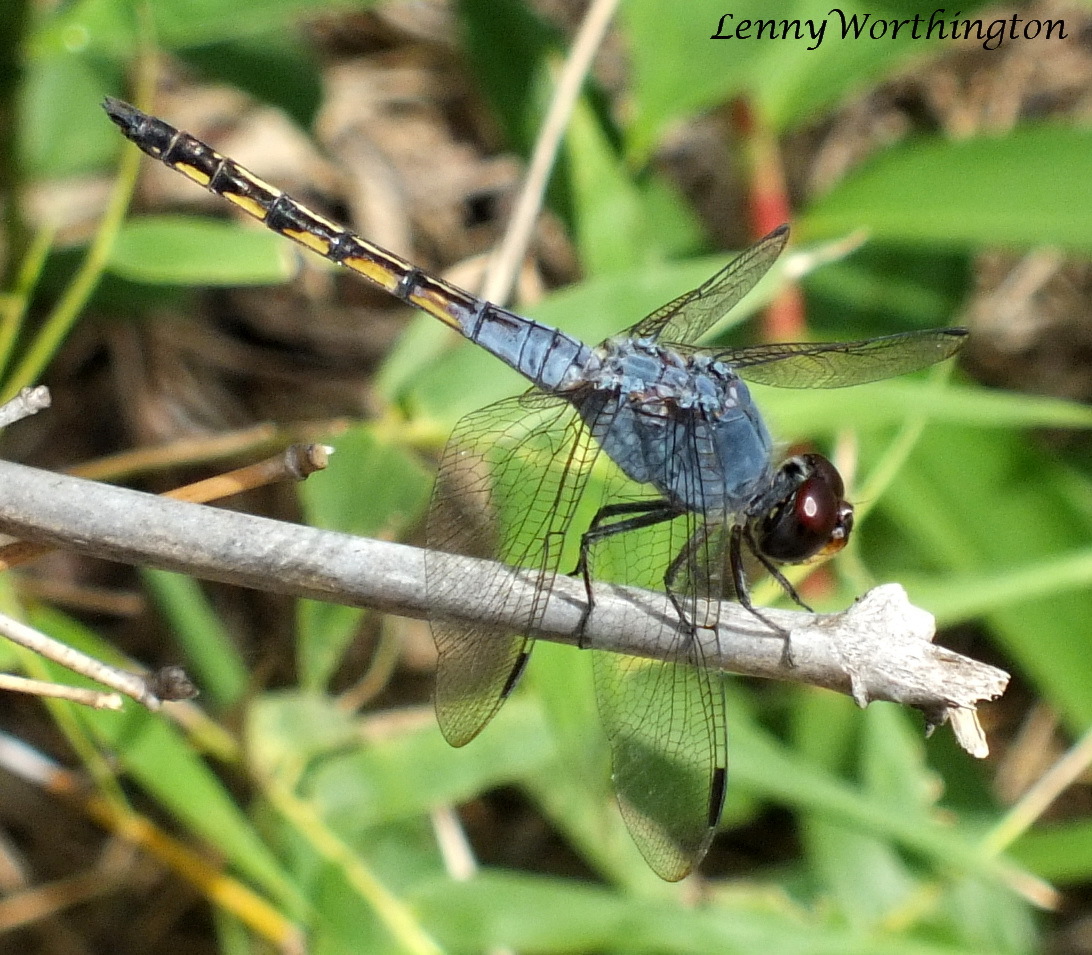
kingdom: Animalia
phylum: Arthropoda
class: Insecta
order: Odonata
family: Libellulidae
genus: Potamarcha
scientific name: Potamarcha congener
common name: Blue chaser
